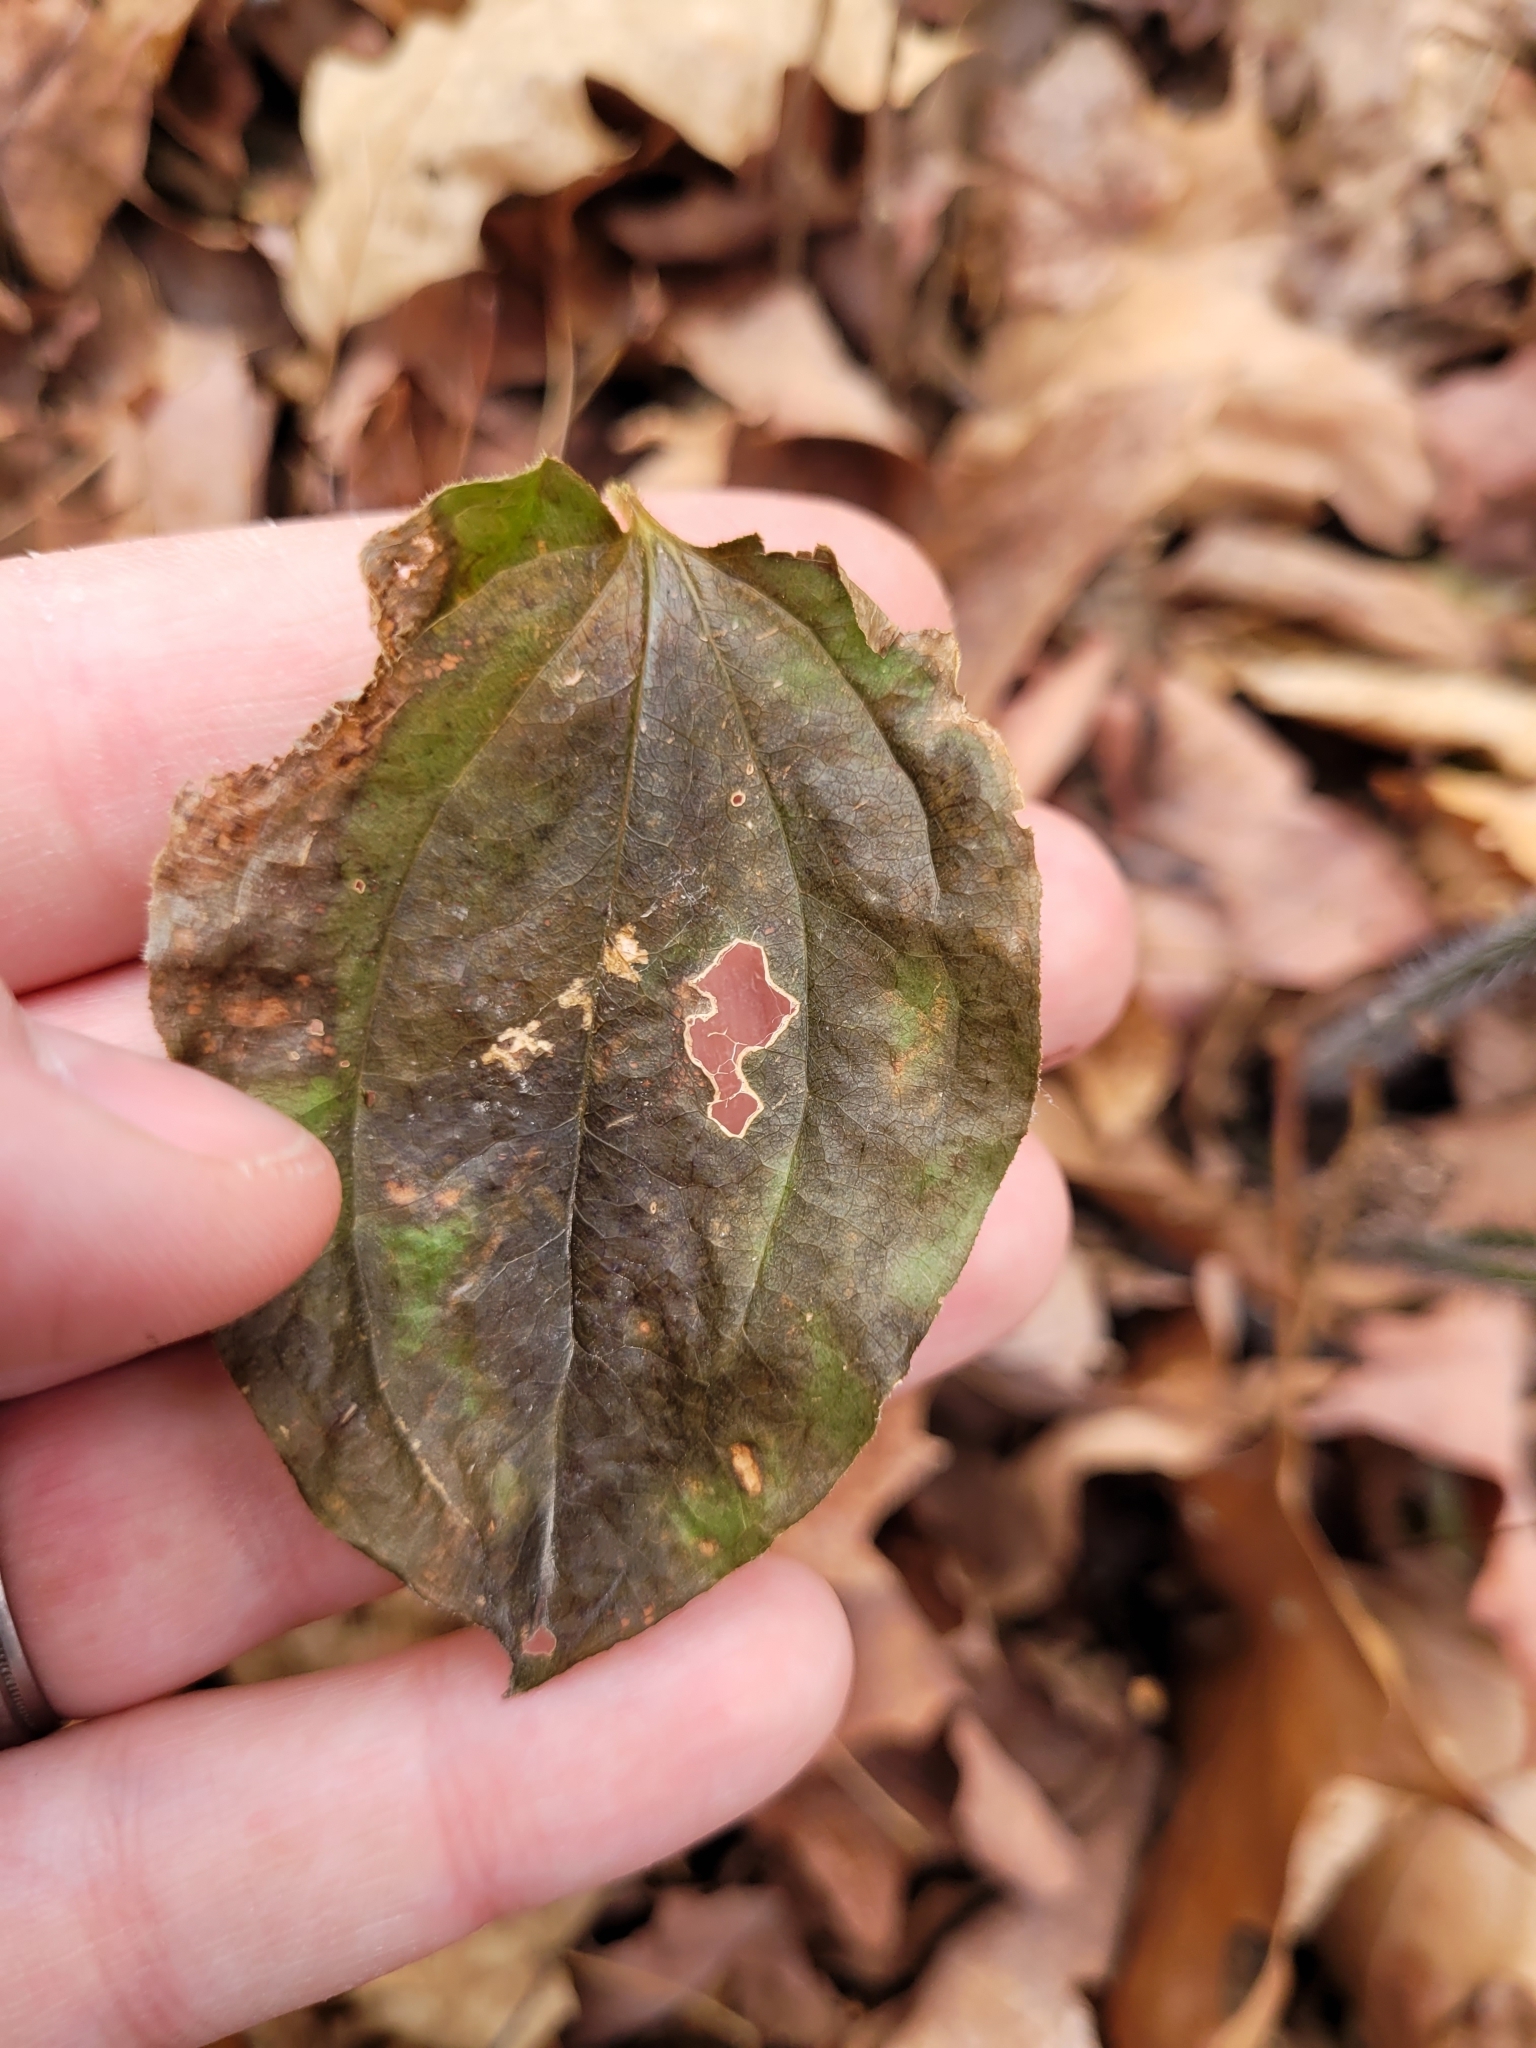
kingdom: Plantae
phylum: Tracheophyta
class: Liliopsida
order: Liliales
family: Smilacaceae
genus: Smilax
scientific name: Smilax tamnoides
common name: Hellfetter
